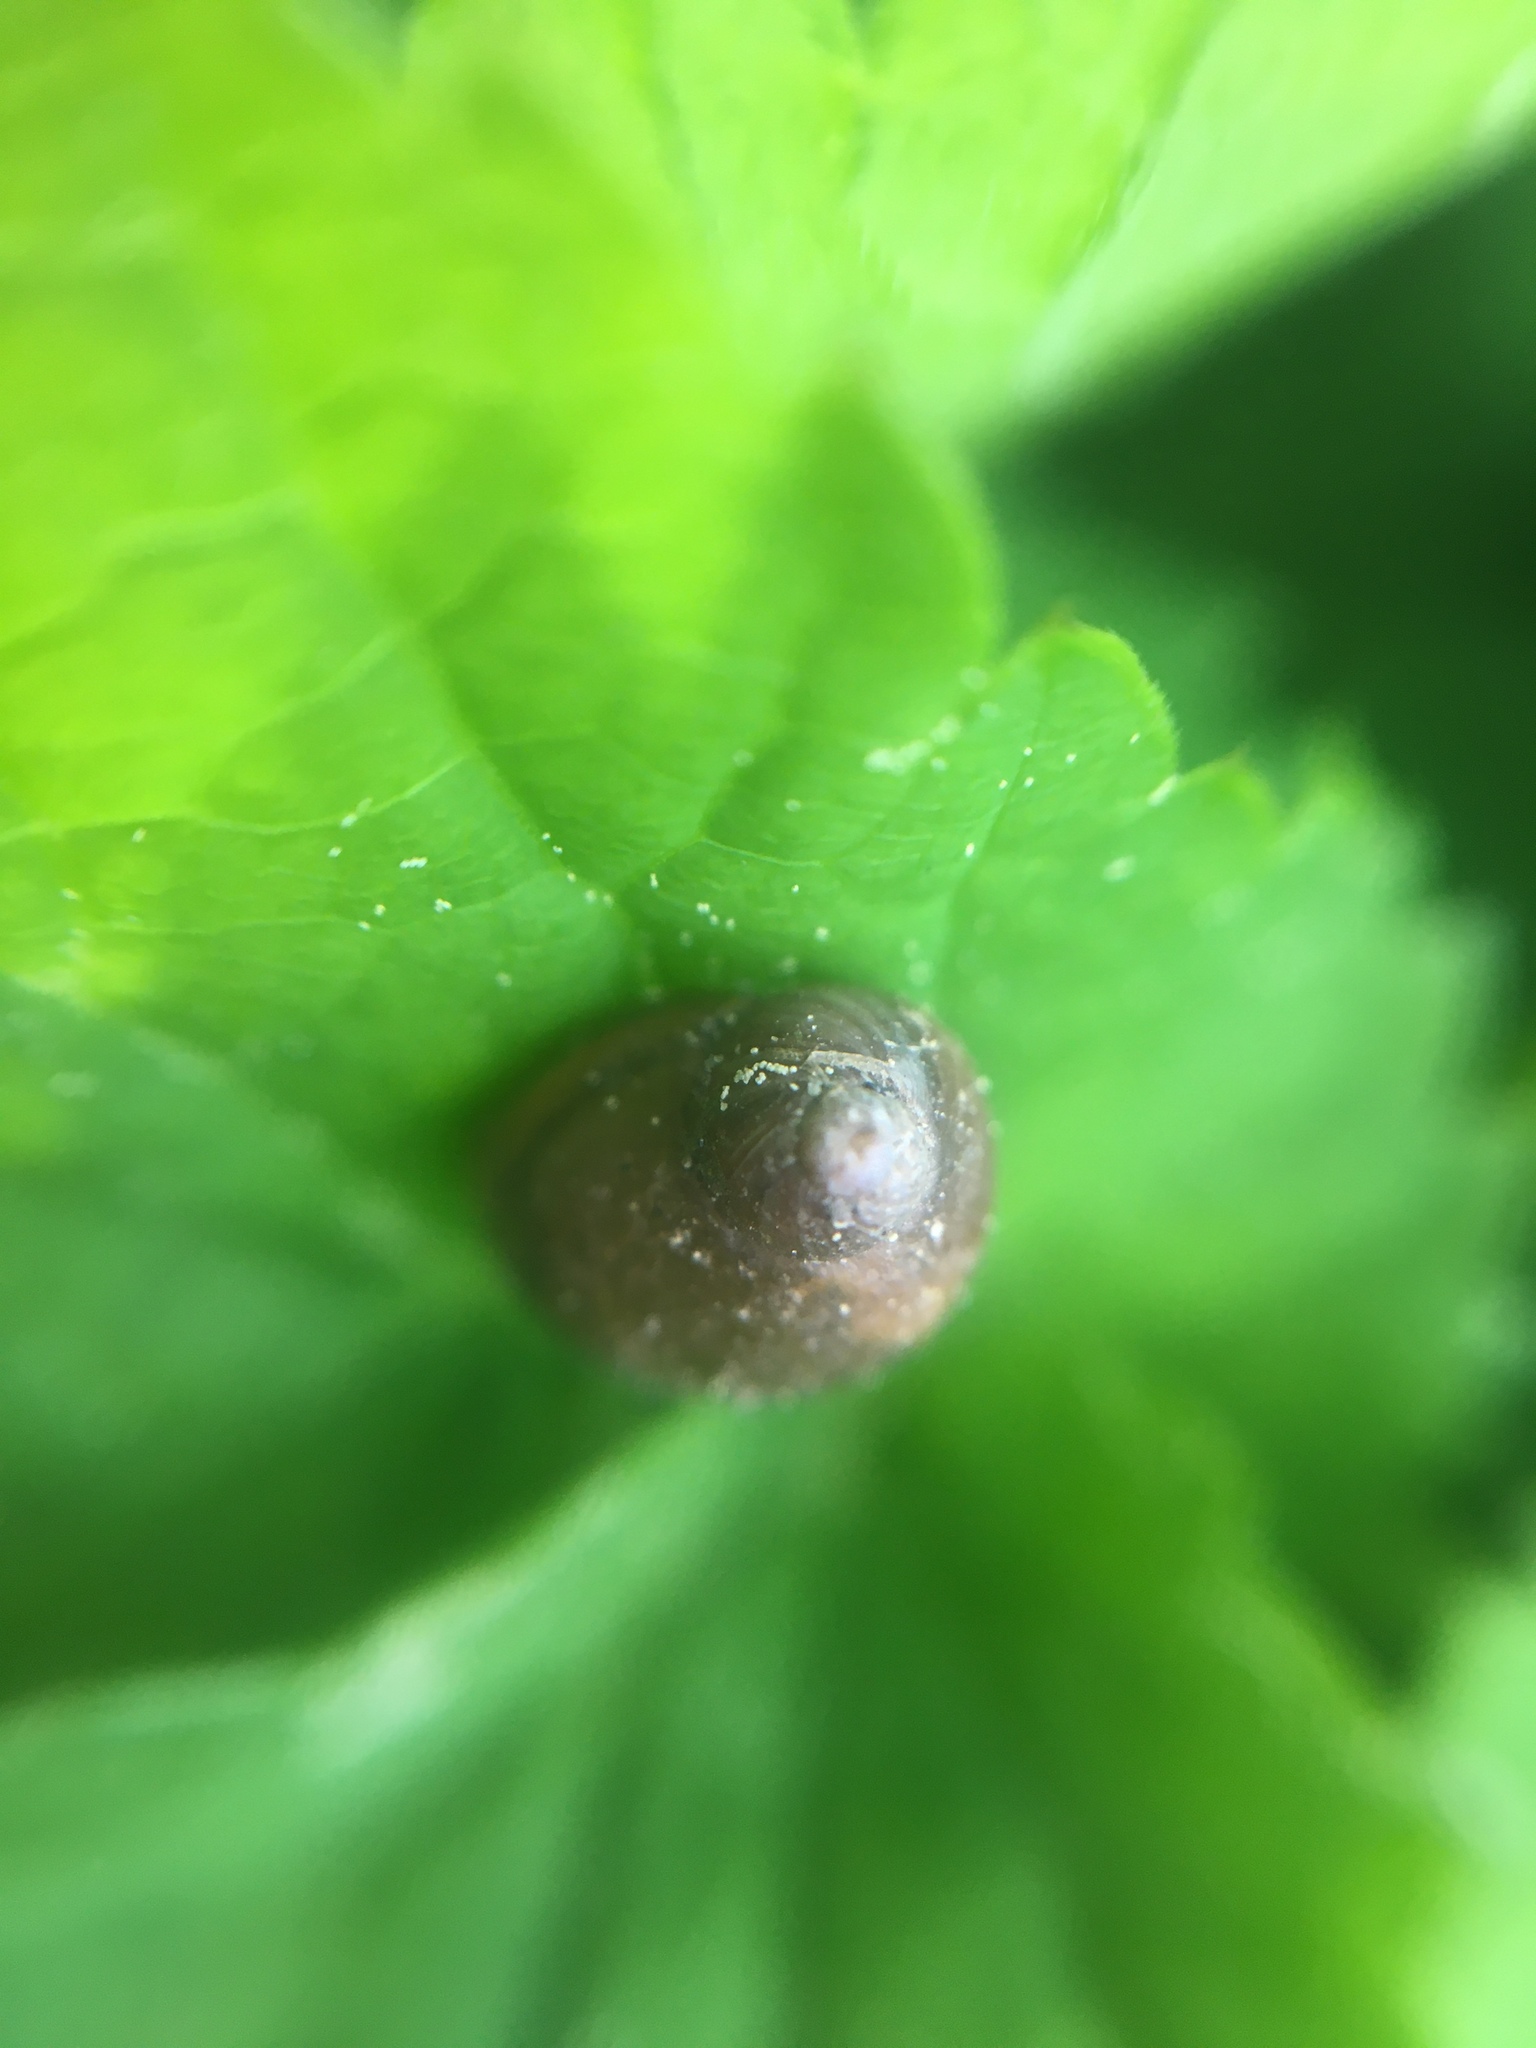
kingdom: Animalia
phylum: Mollusca
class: Gastropoda
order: Stylommatophora
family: Succineidae
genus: Succinea
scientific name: Succinea putris
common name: European ambersnail
